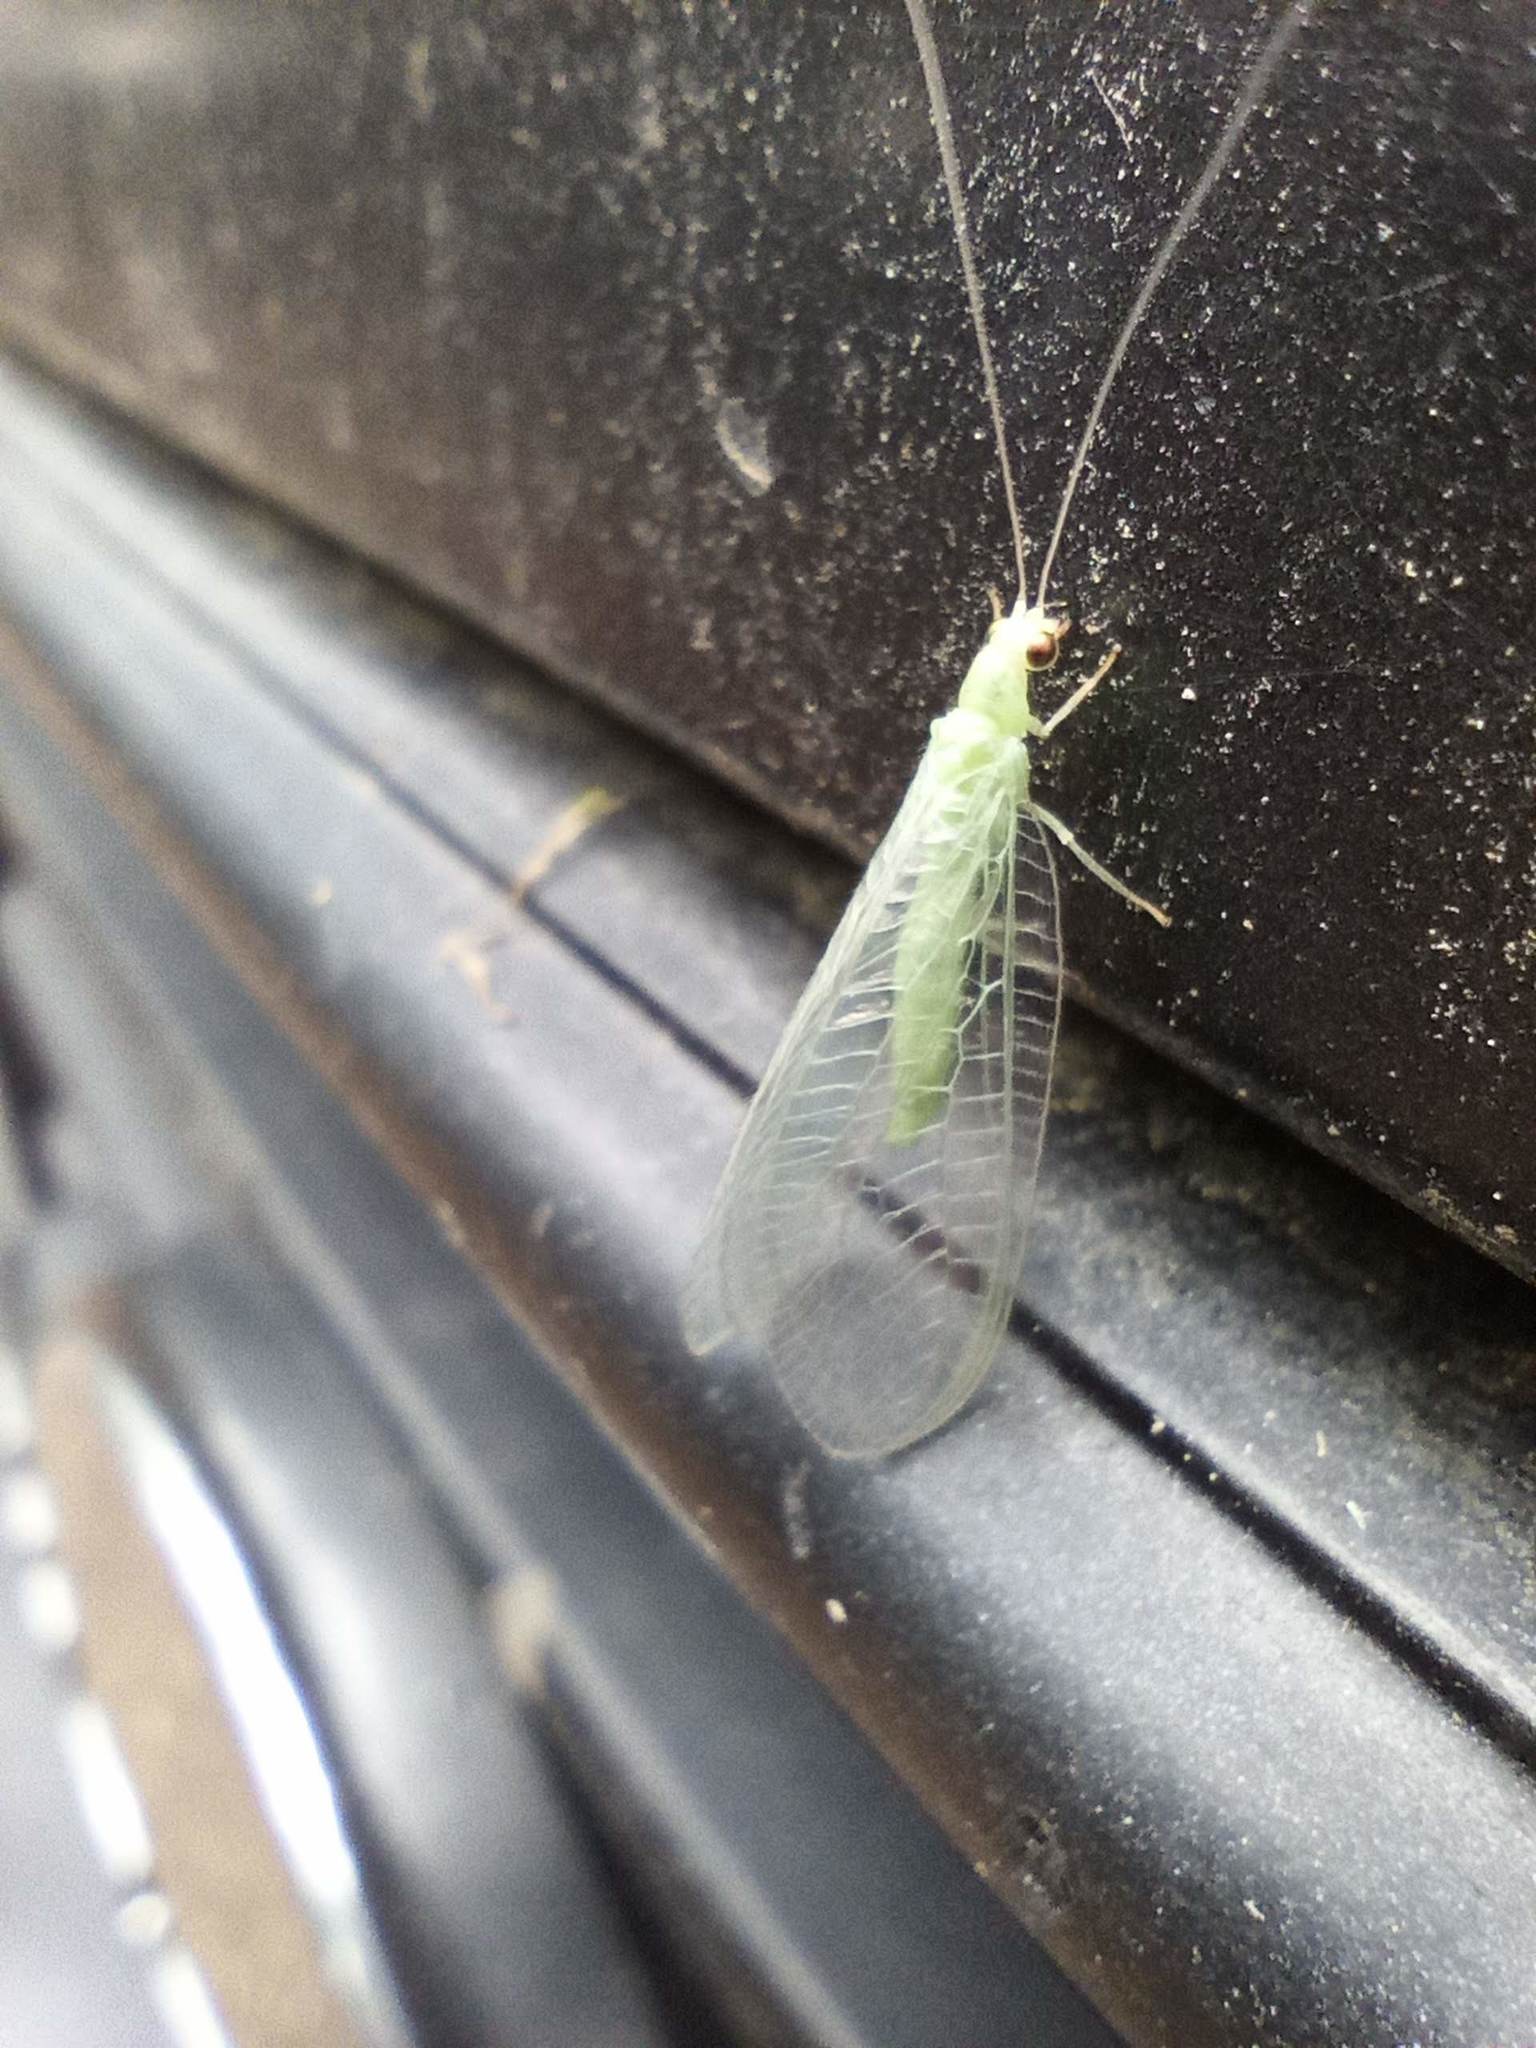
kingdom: Animalia
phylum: Arthropoda
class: Insecta
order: Neuroptera
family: Chrysopidae
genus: Pseudomallada
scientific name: Pseudomallada flavifrons
